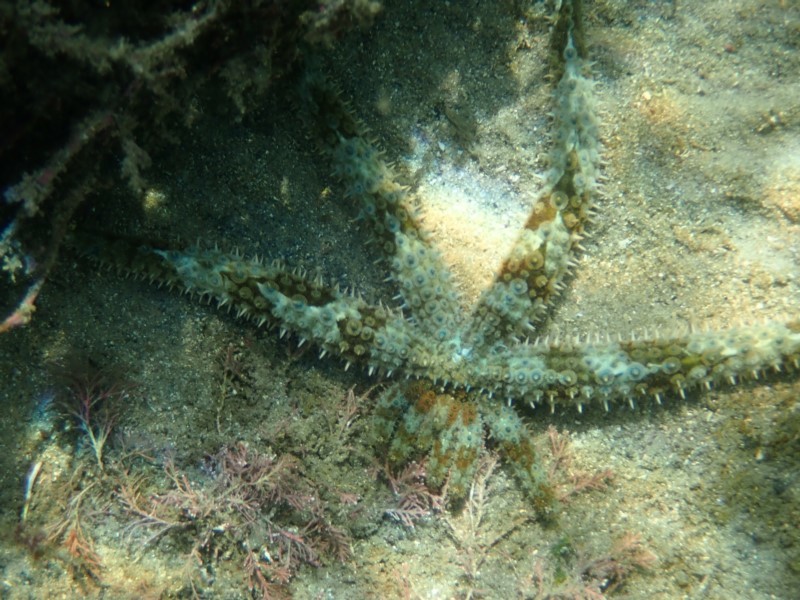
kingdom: Animalia
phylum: Echinodermata
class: Asteroidea
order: Forcipulatida
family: Asteriidae
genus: Coscinasterias
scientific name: Coscinasterias muricata
